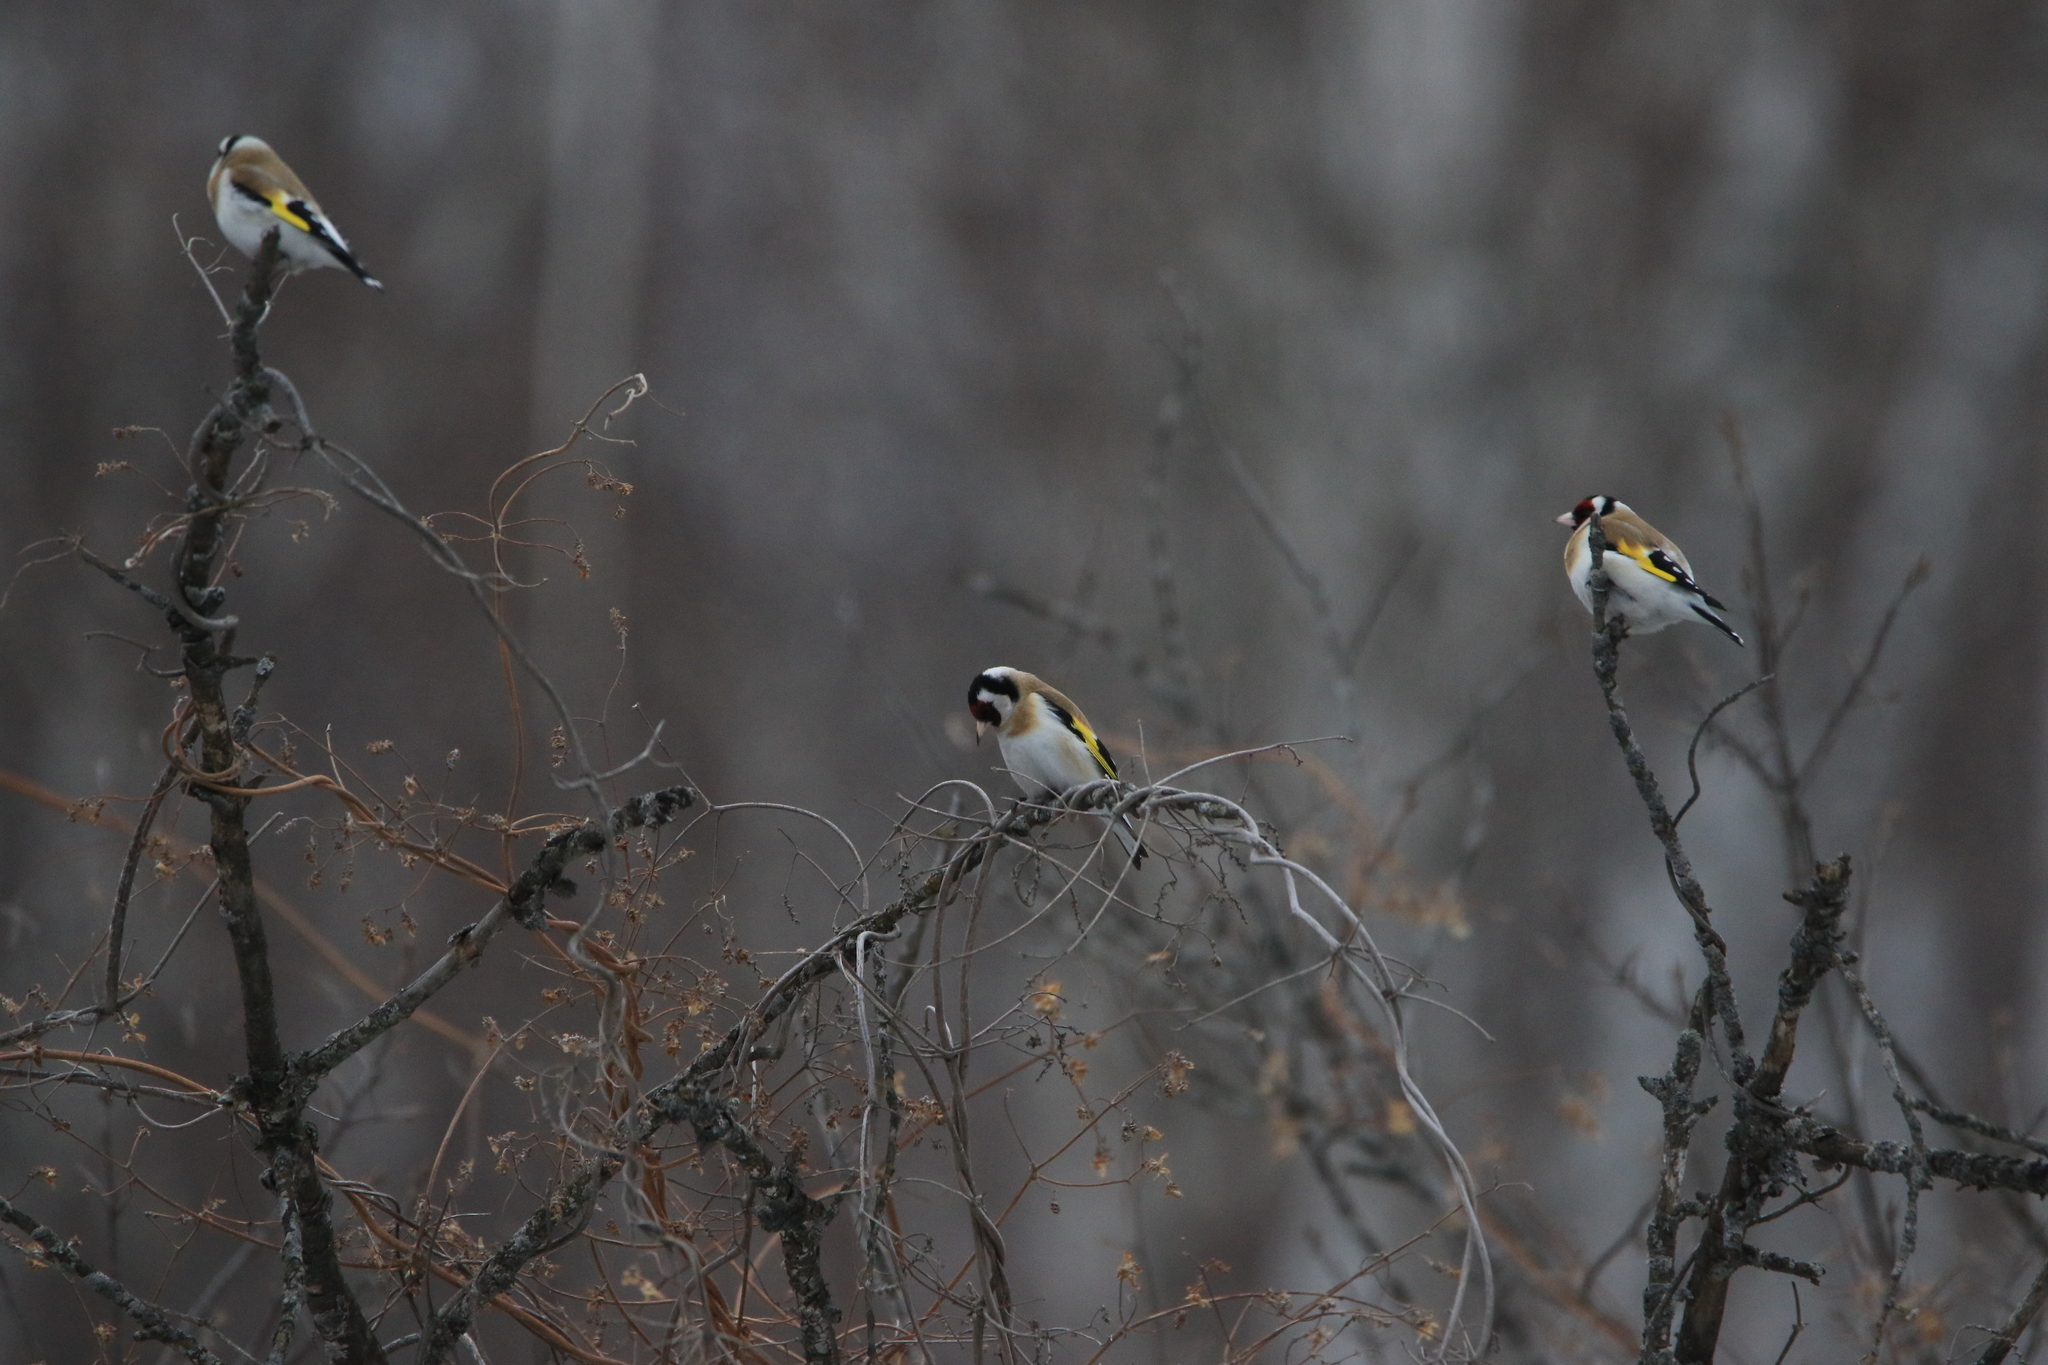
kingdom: Animalia
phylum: Chordata
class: Aves
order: Passeriformes
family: Fringillidae
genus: Carduelis
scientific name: Carduelis carduelis
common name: European goldfinch
